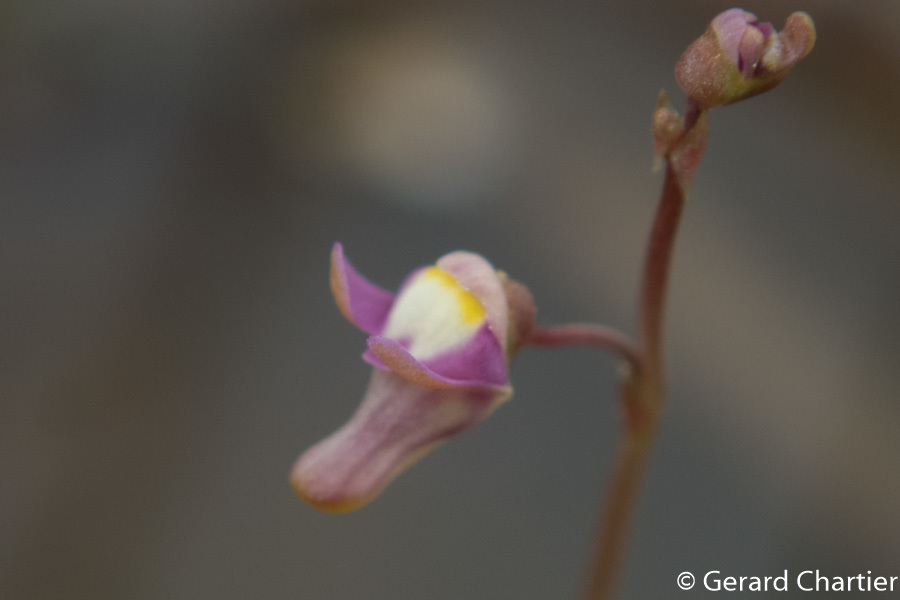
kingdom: Plantae
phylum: Tracheophyta
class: Magnoliopsida
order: Lamiales
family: Lentibulariaceae
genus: Utricularia
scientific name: Utricularia limosa
